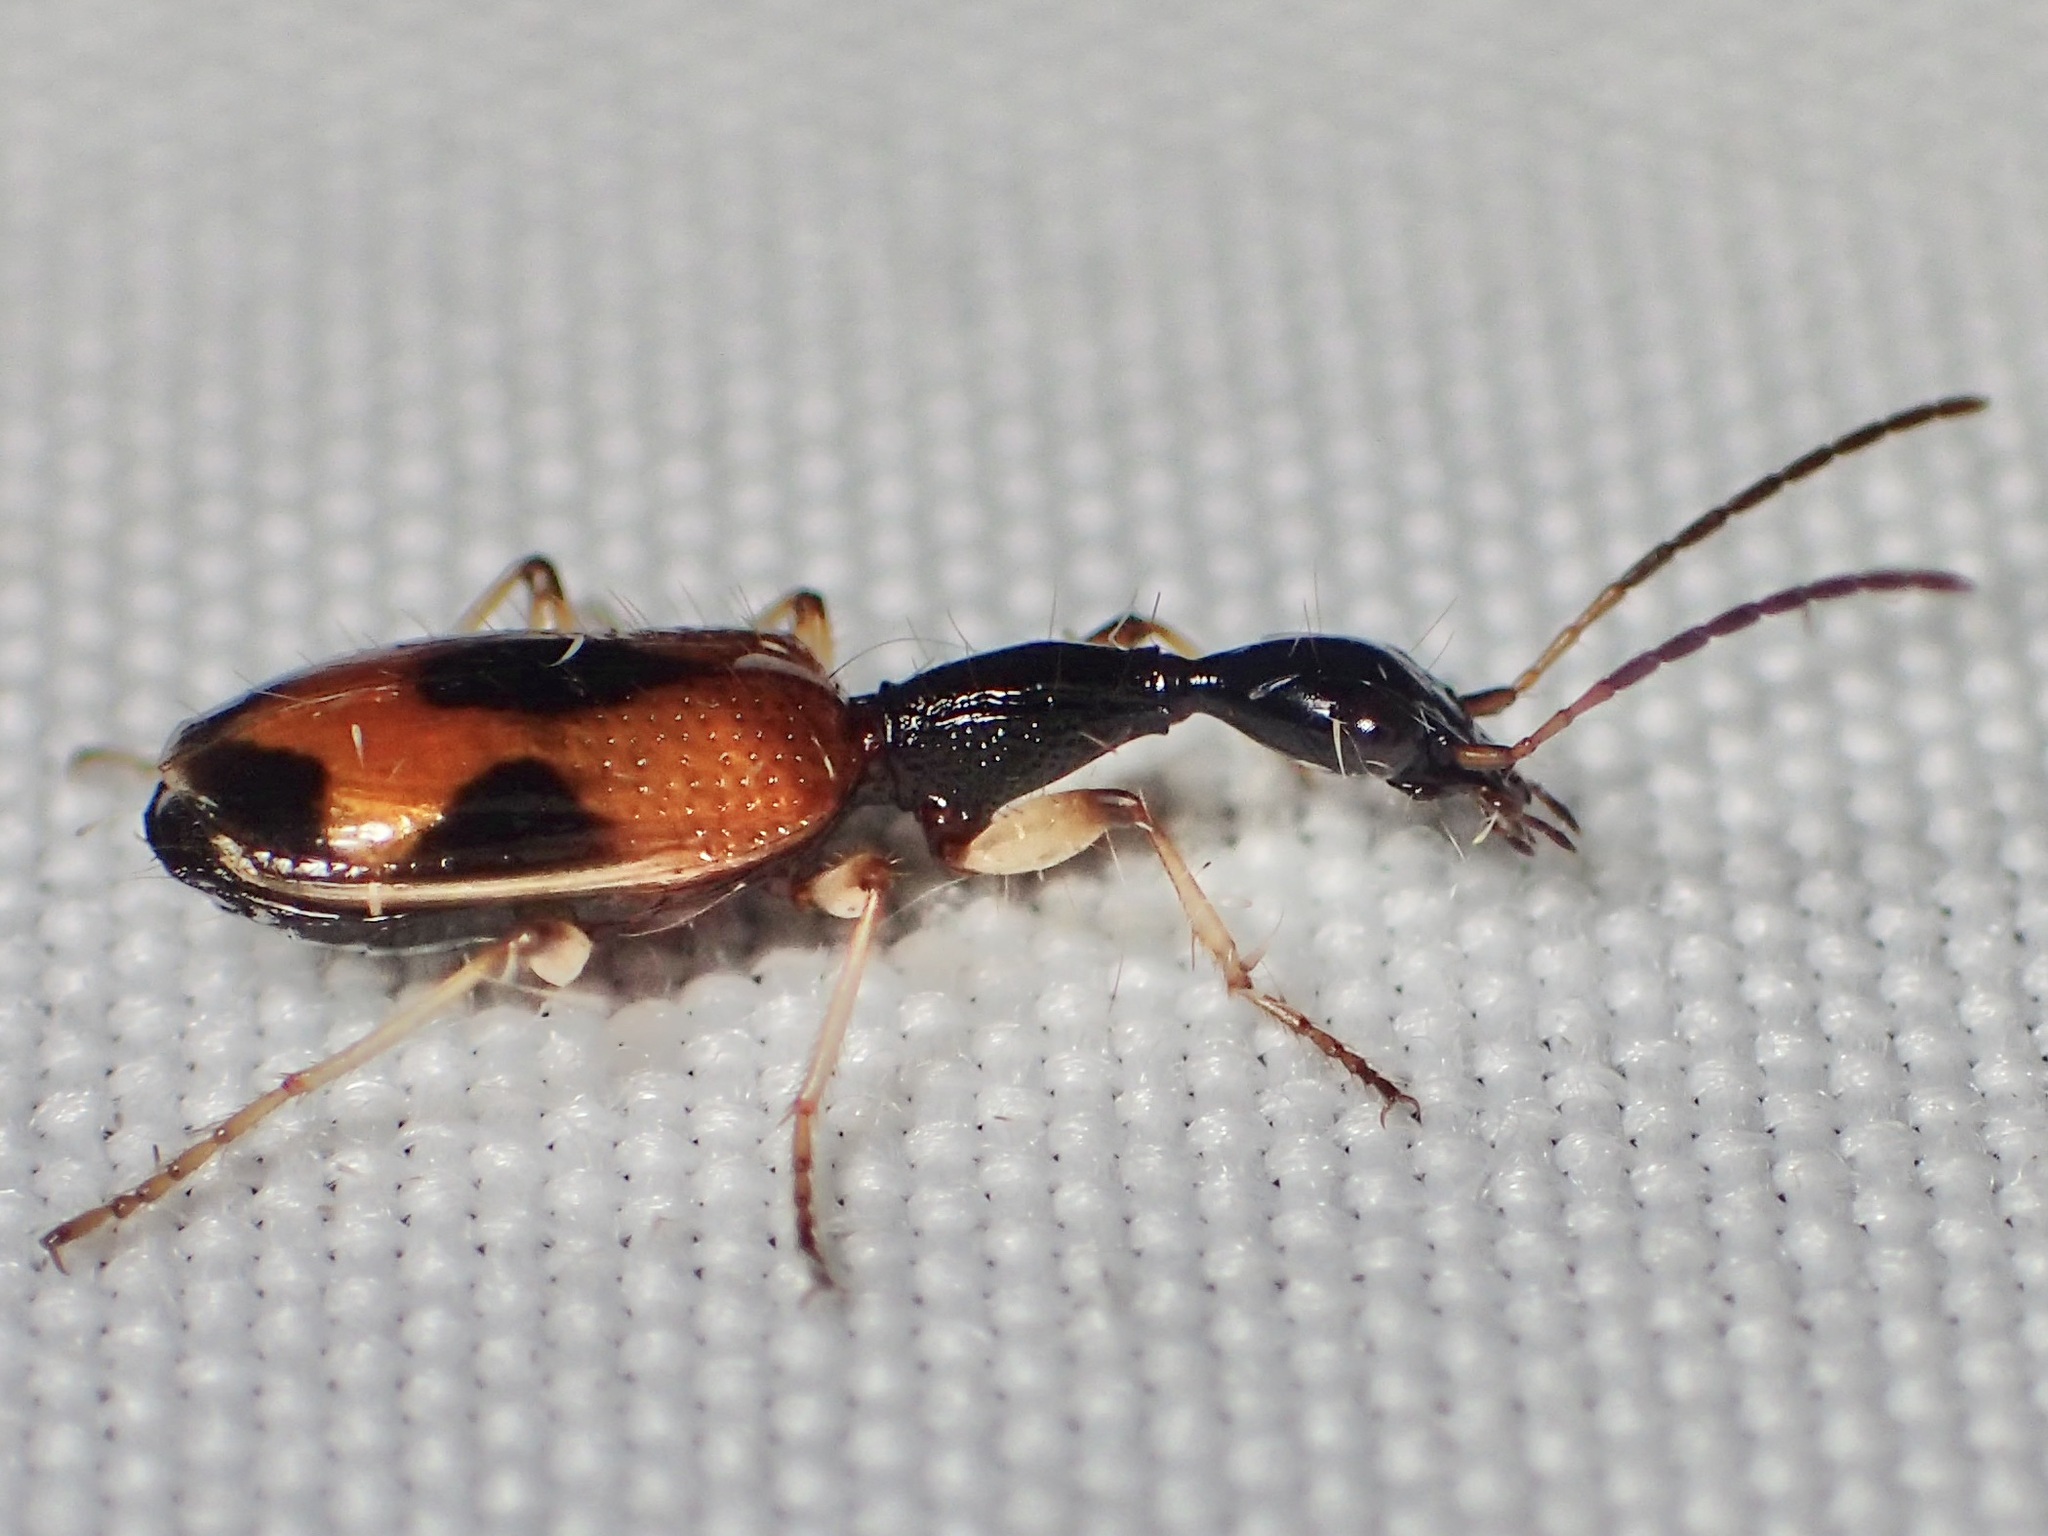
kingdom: Animalia
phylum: Arthropoda
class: Insecta
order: Coleoptera
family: Carabidae
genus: Colliuris
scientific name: Colliuris pensylvanica
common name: Long-necked ground beetle
